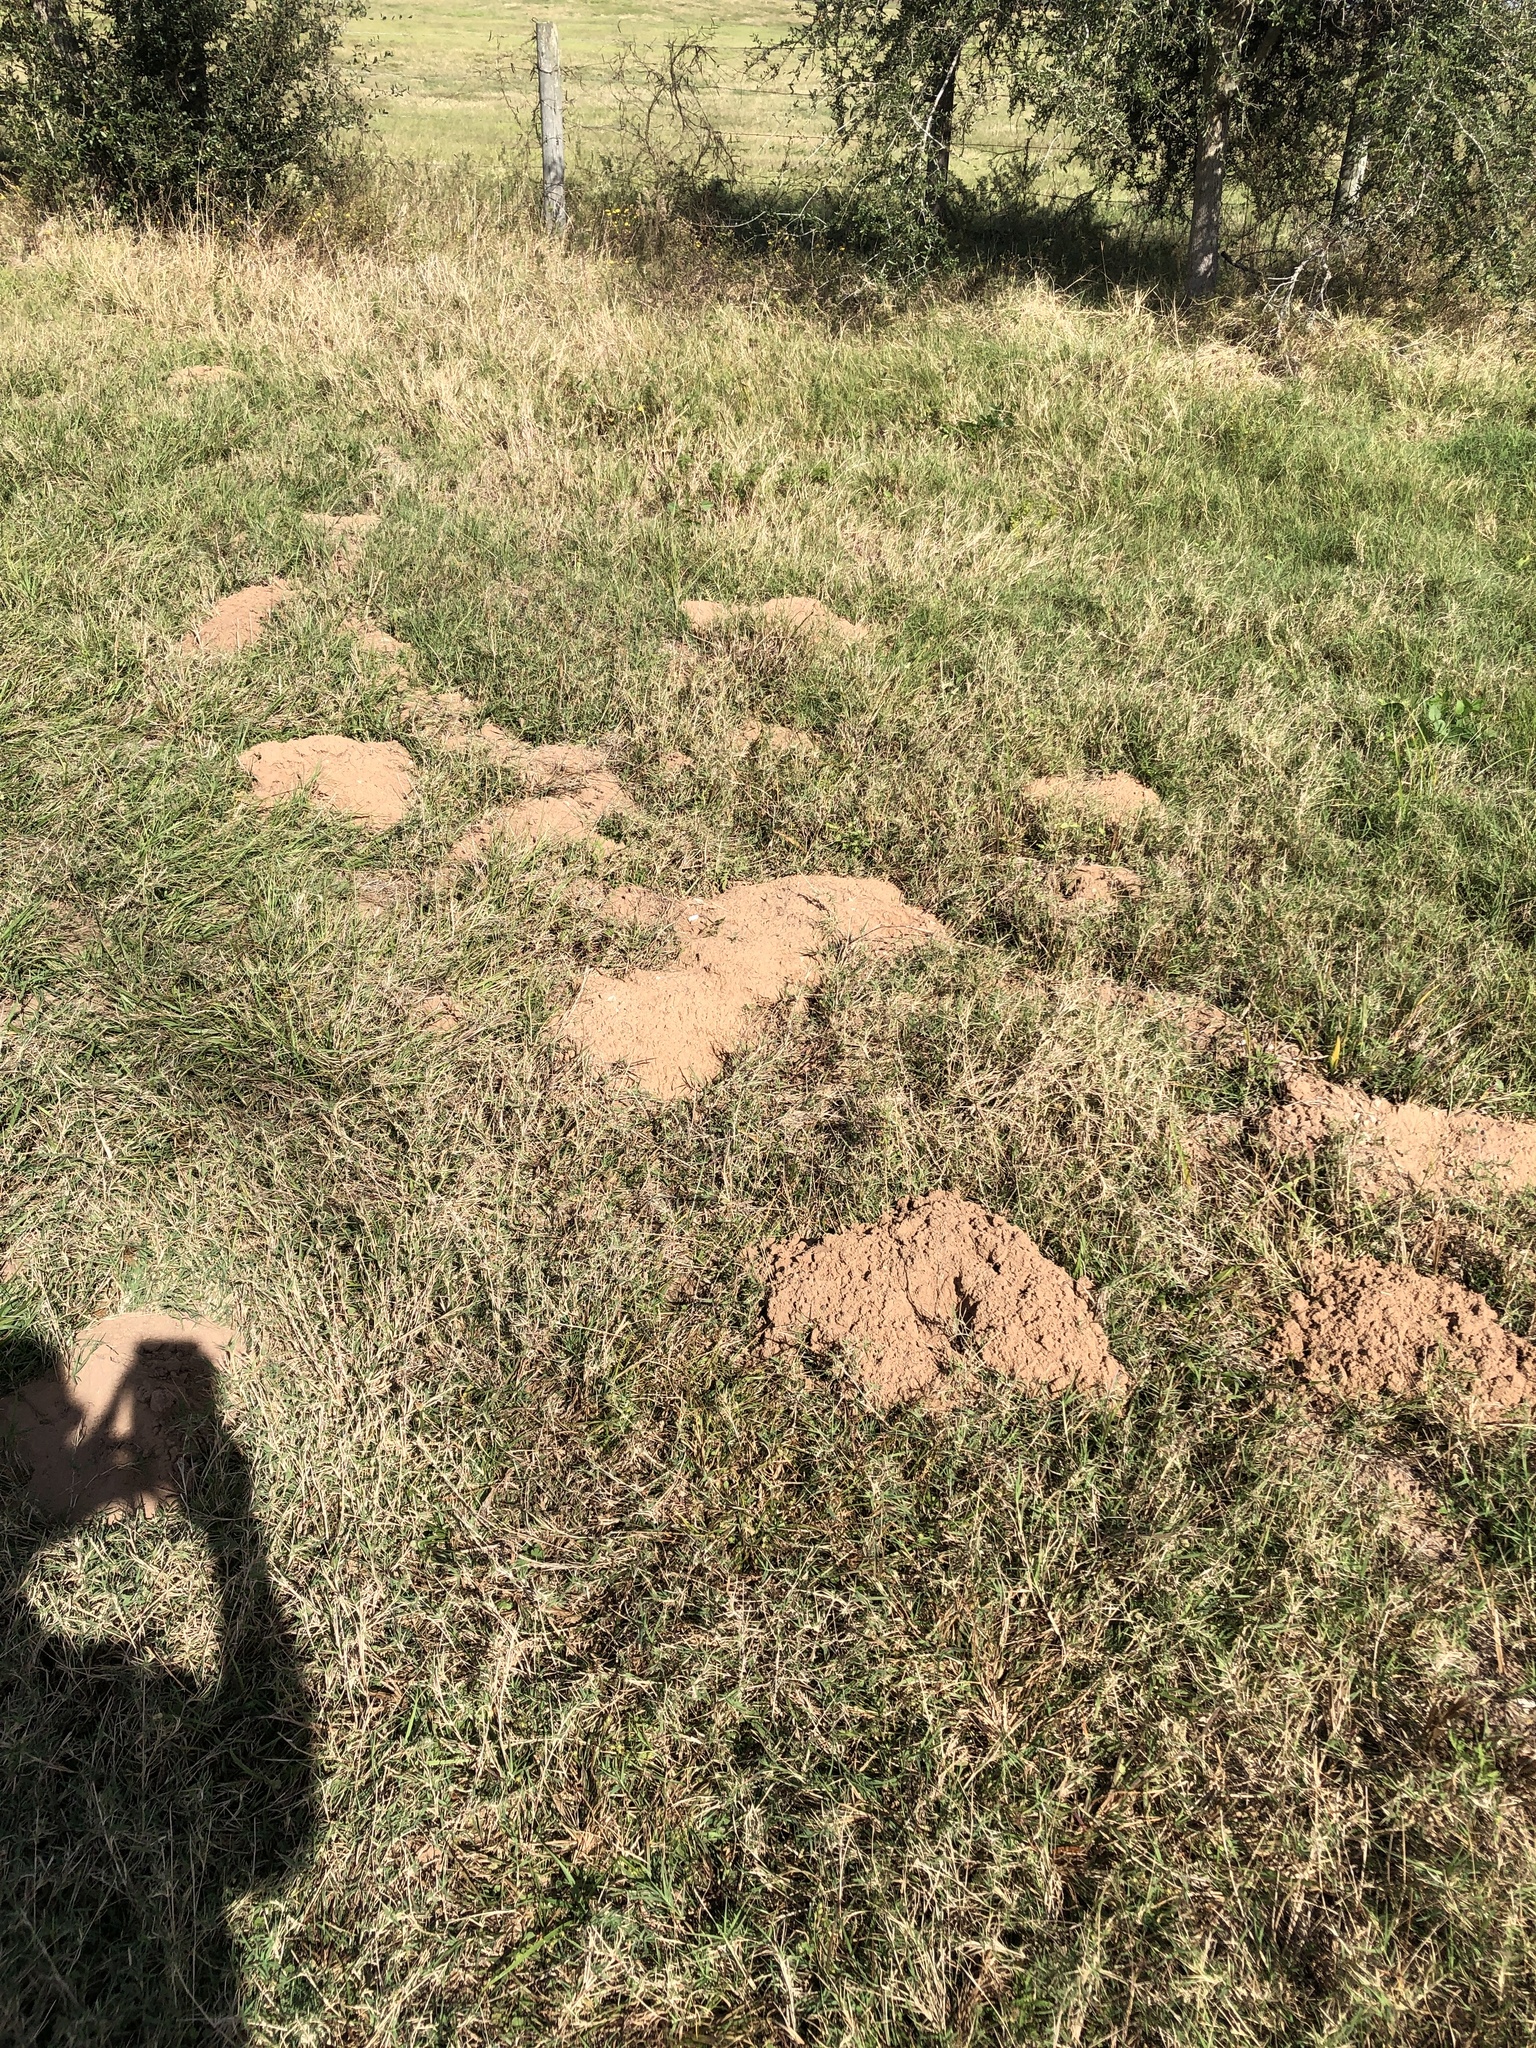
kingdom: Animalia
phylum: Chordata
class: Mammalia
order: Rodentia
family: Geomyidae
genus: Geomys
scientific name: Geomys attwateri
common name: Attwater's pocket gopher
